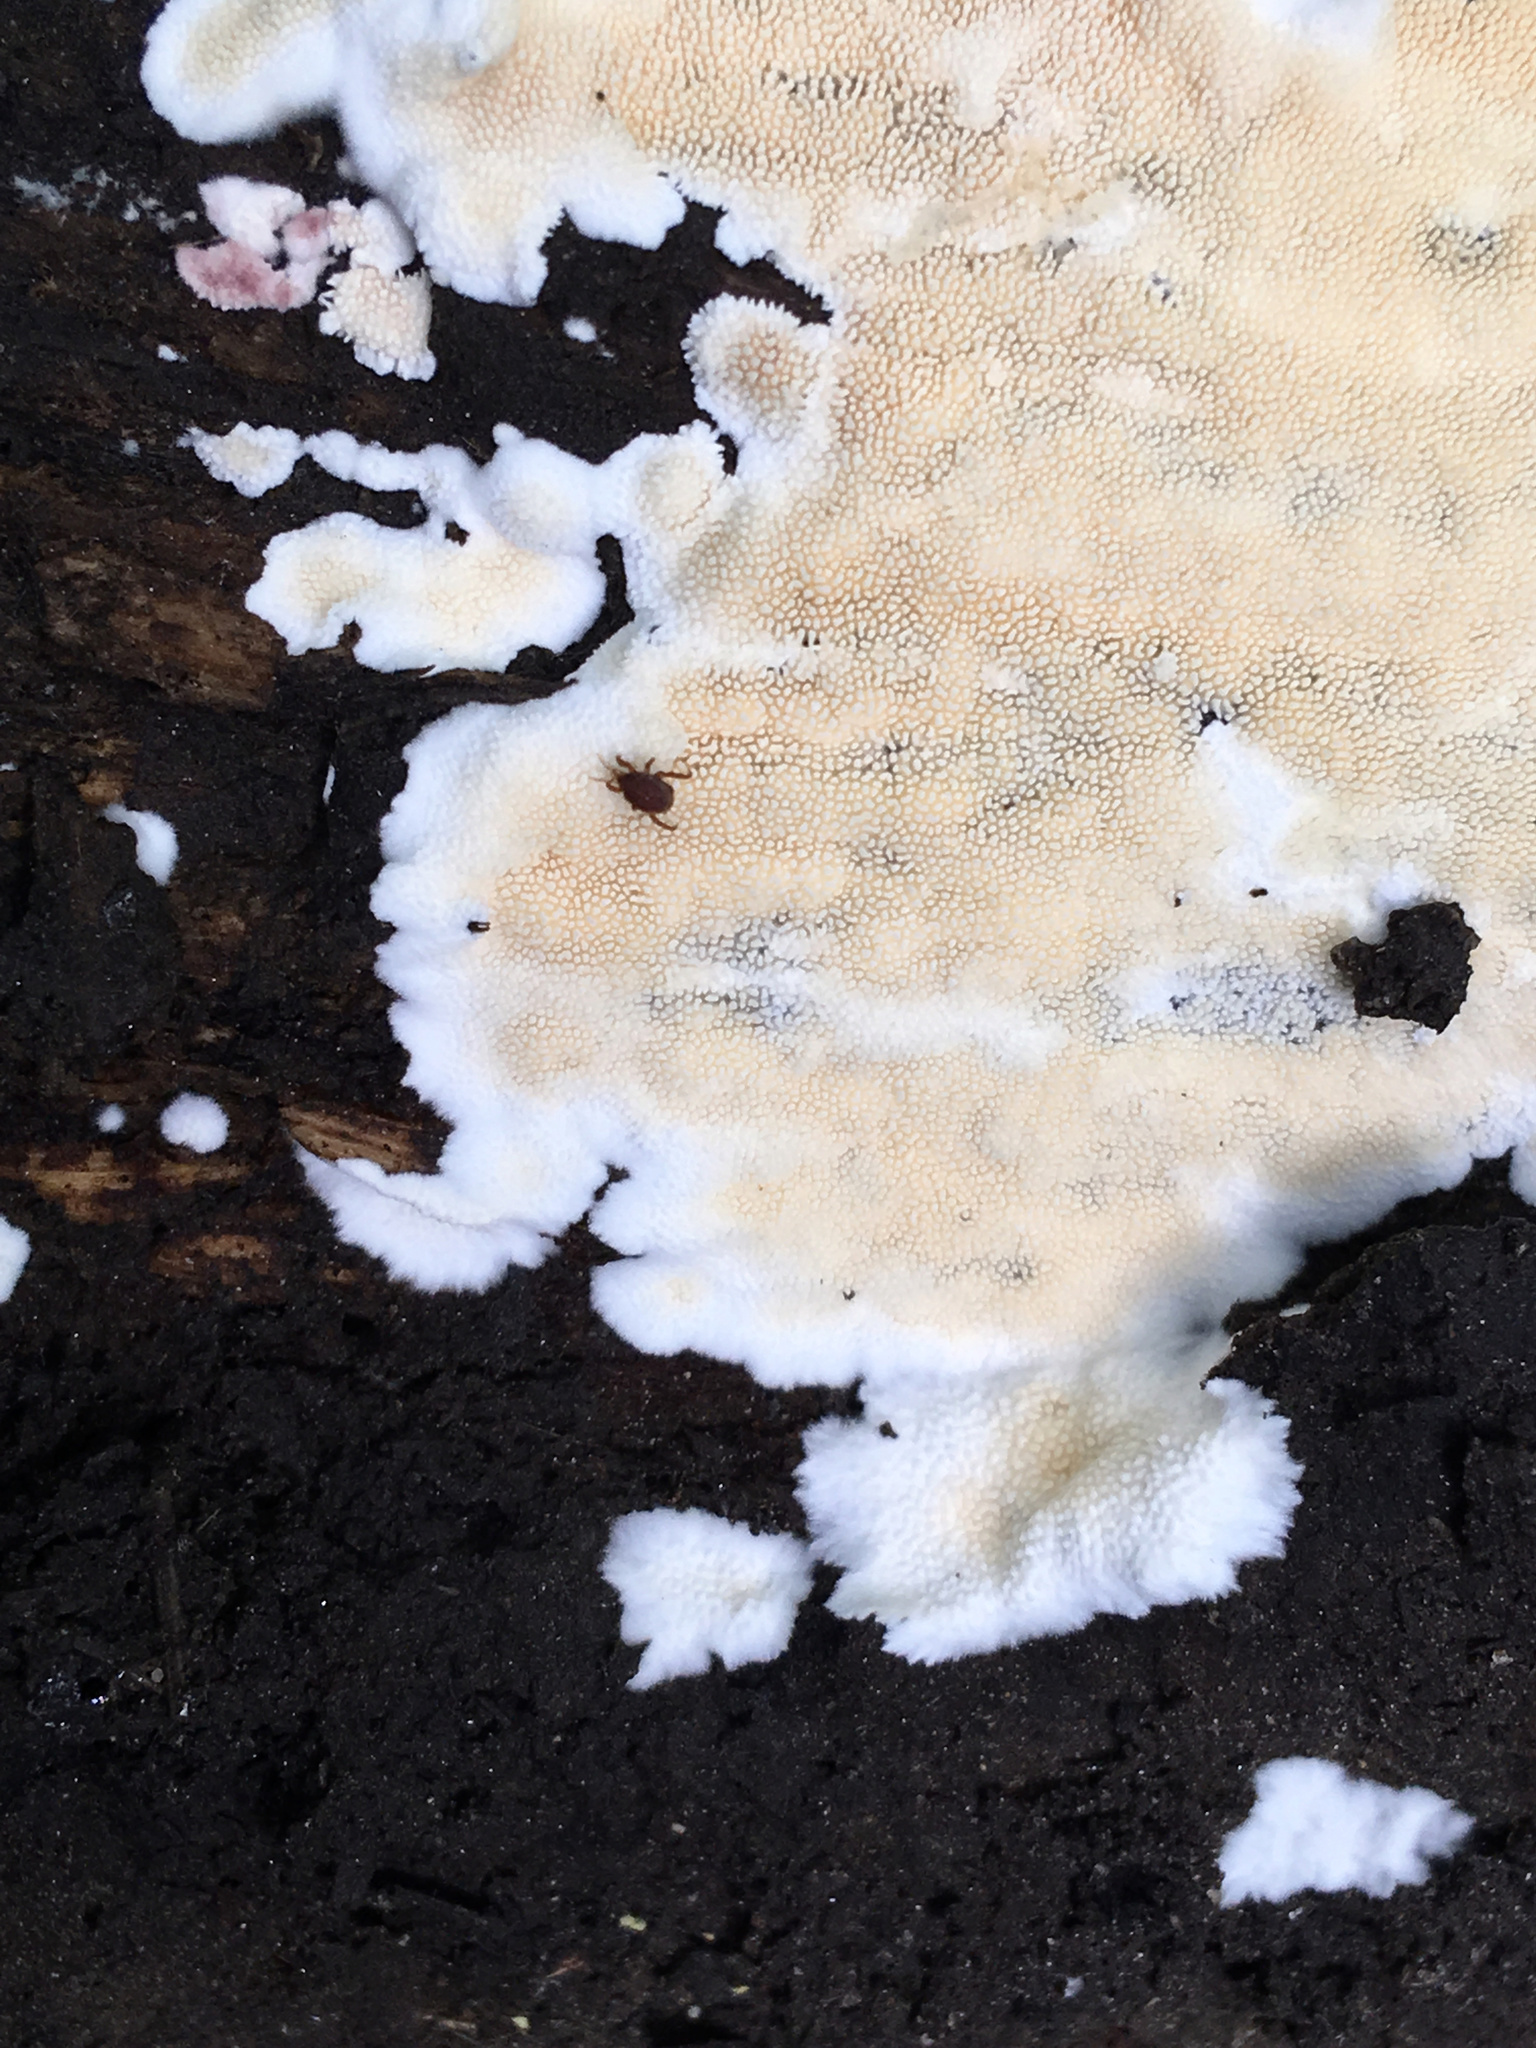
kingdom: Fungi
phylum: Basidiomycota
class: Agaricomycetes
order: Polyporales
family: Steccherinaceae
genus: Steccherinum
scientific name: Steccherinum ochraceum
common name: Ochre spreading tooth
